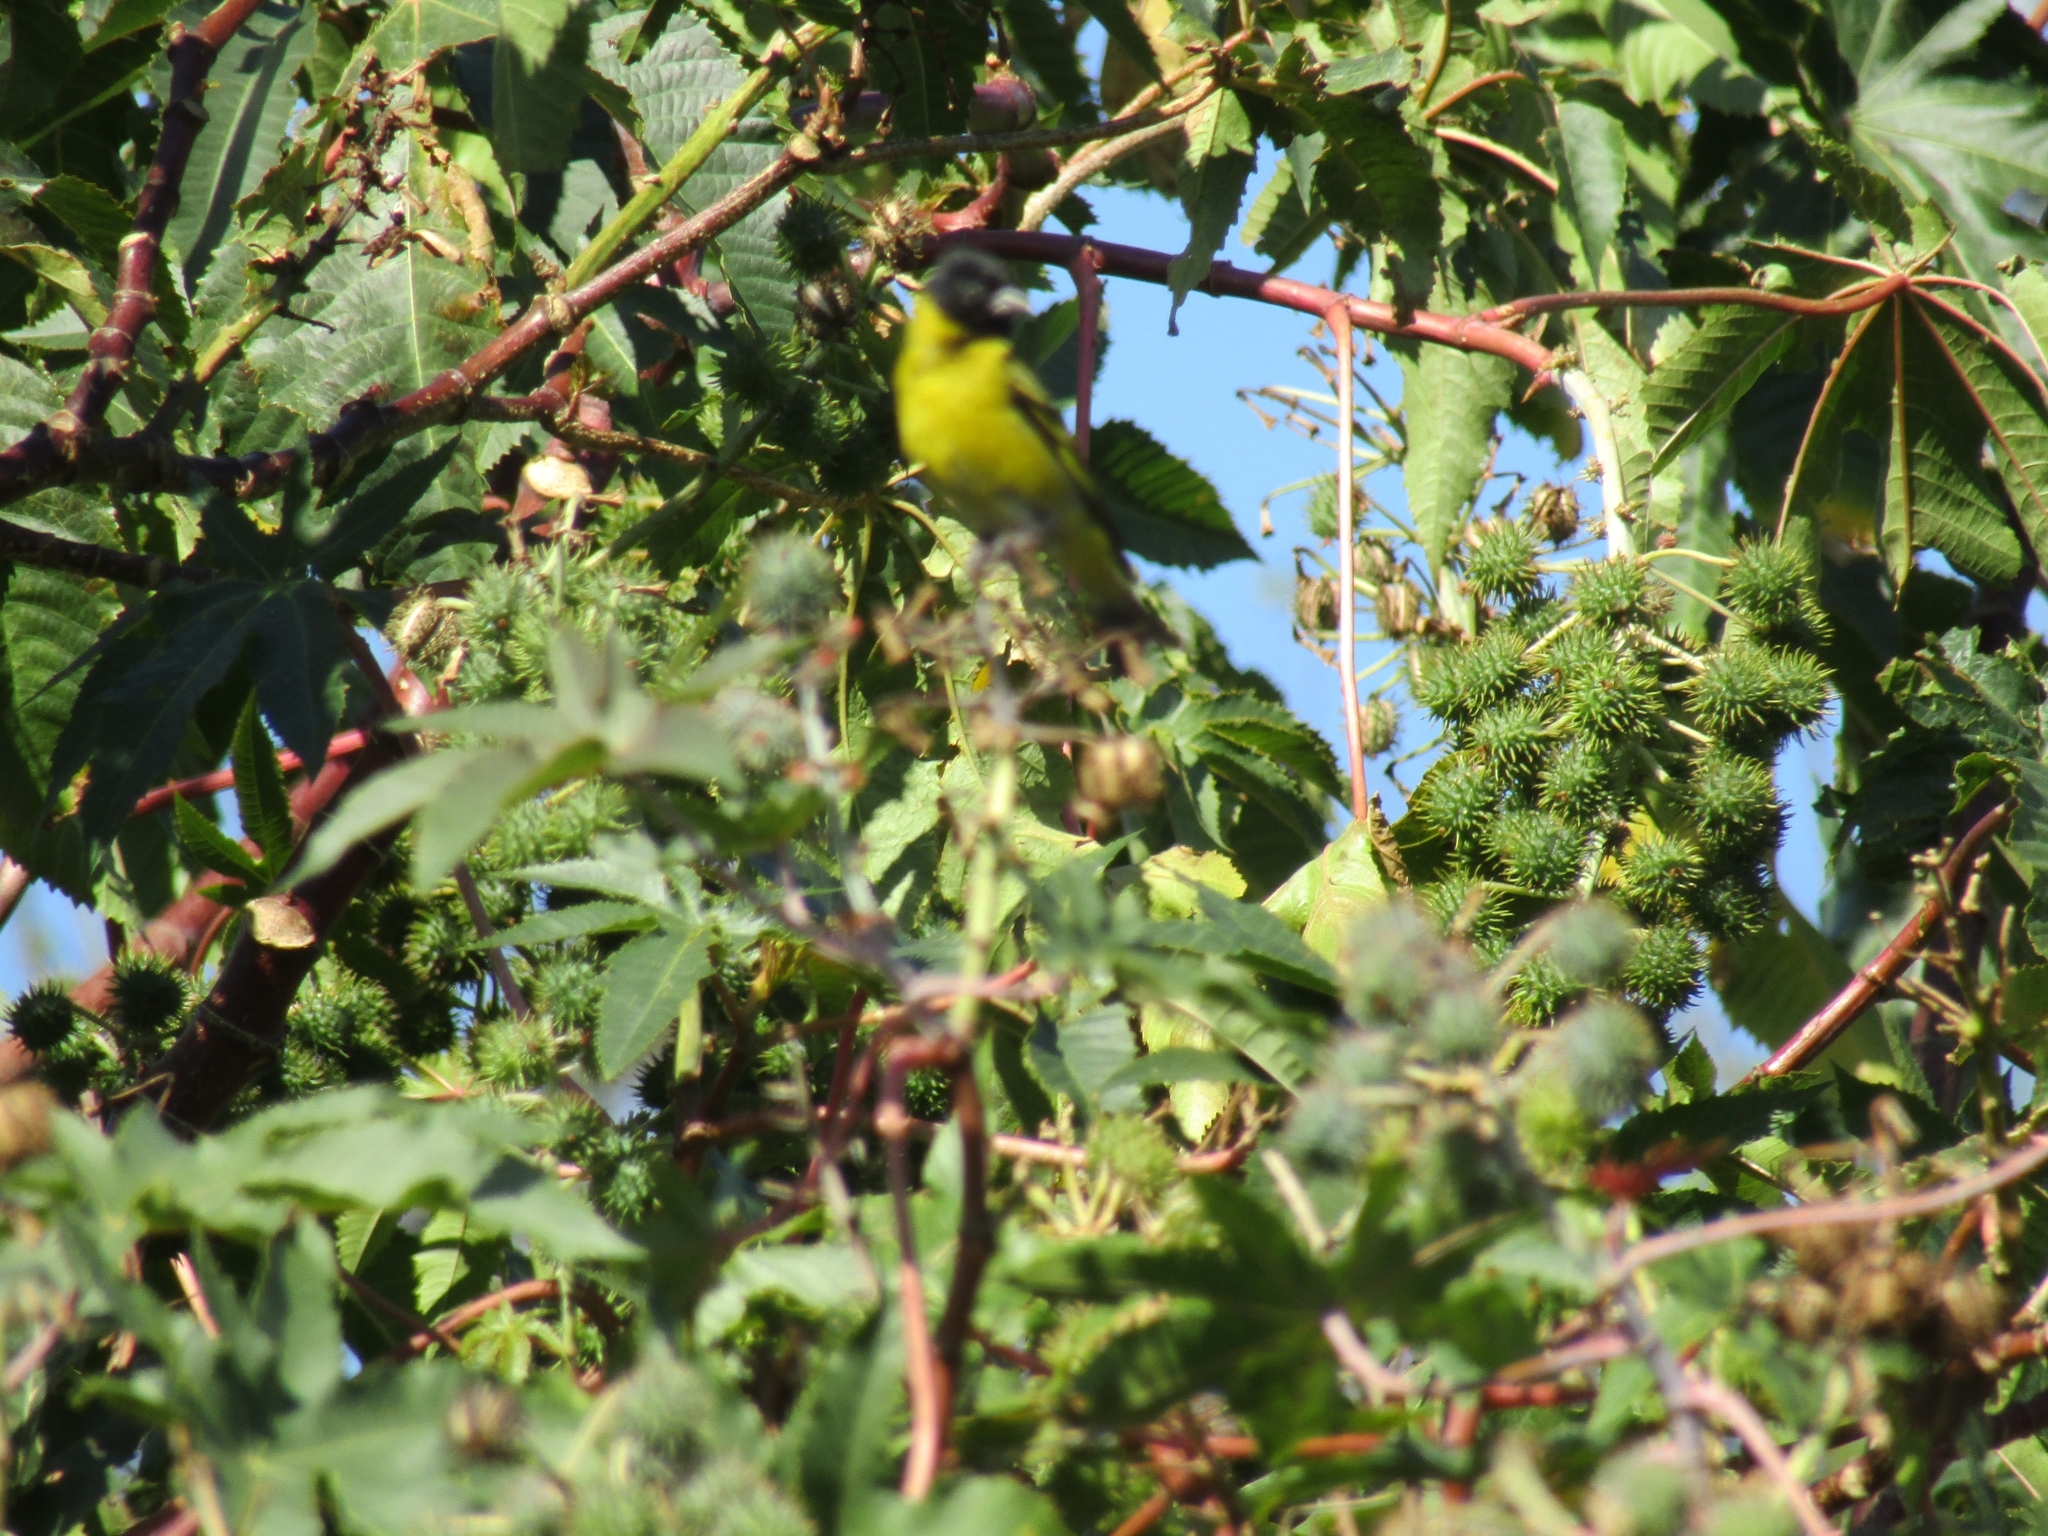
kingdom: Animalia
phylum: Chordata
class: Aves
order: Passeriformes
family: Fringillidae
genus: Spinus
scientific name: Spinus magellanicus
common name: Hooded siskin
